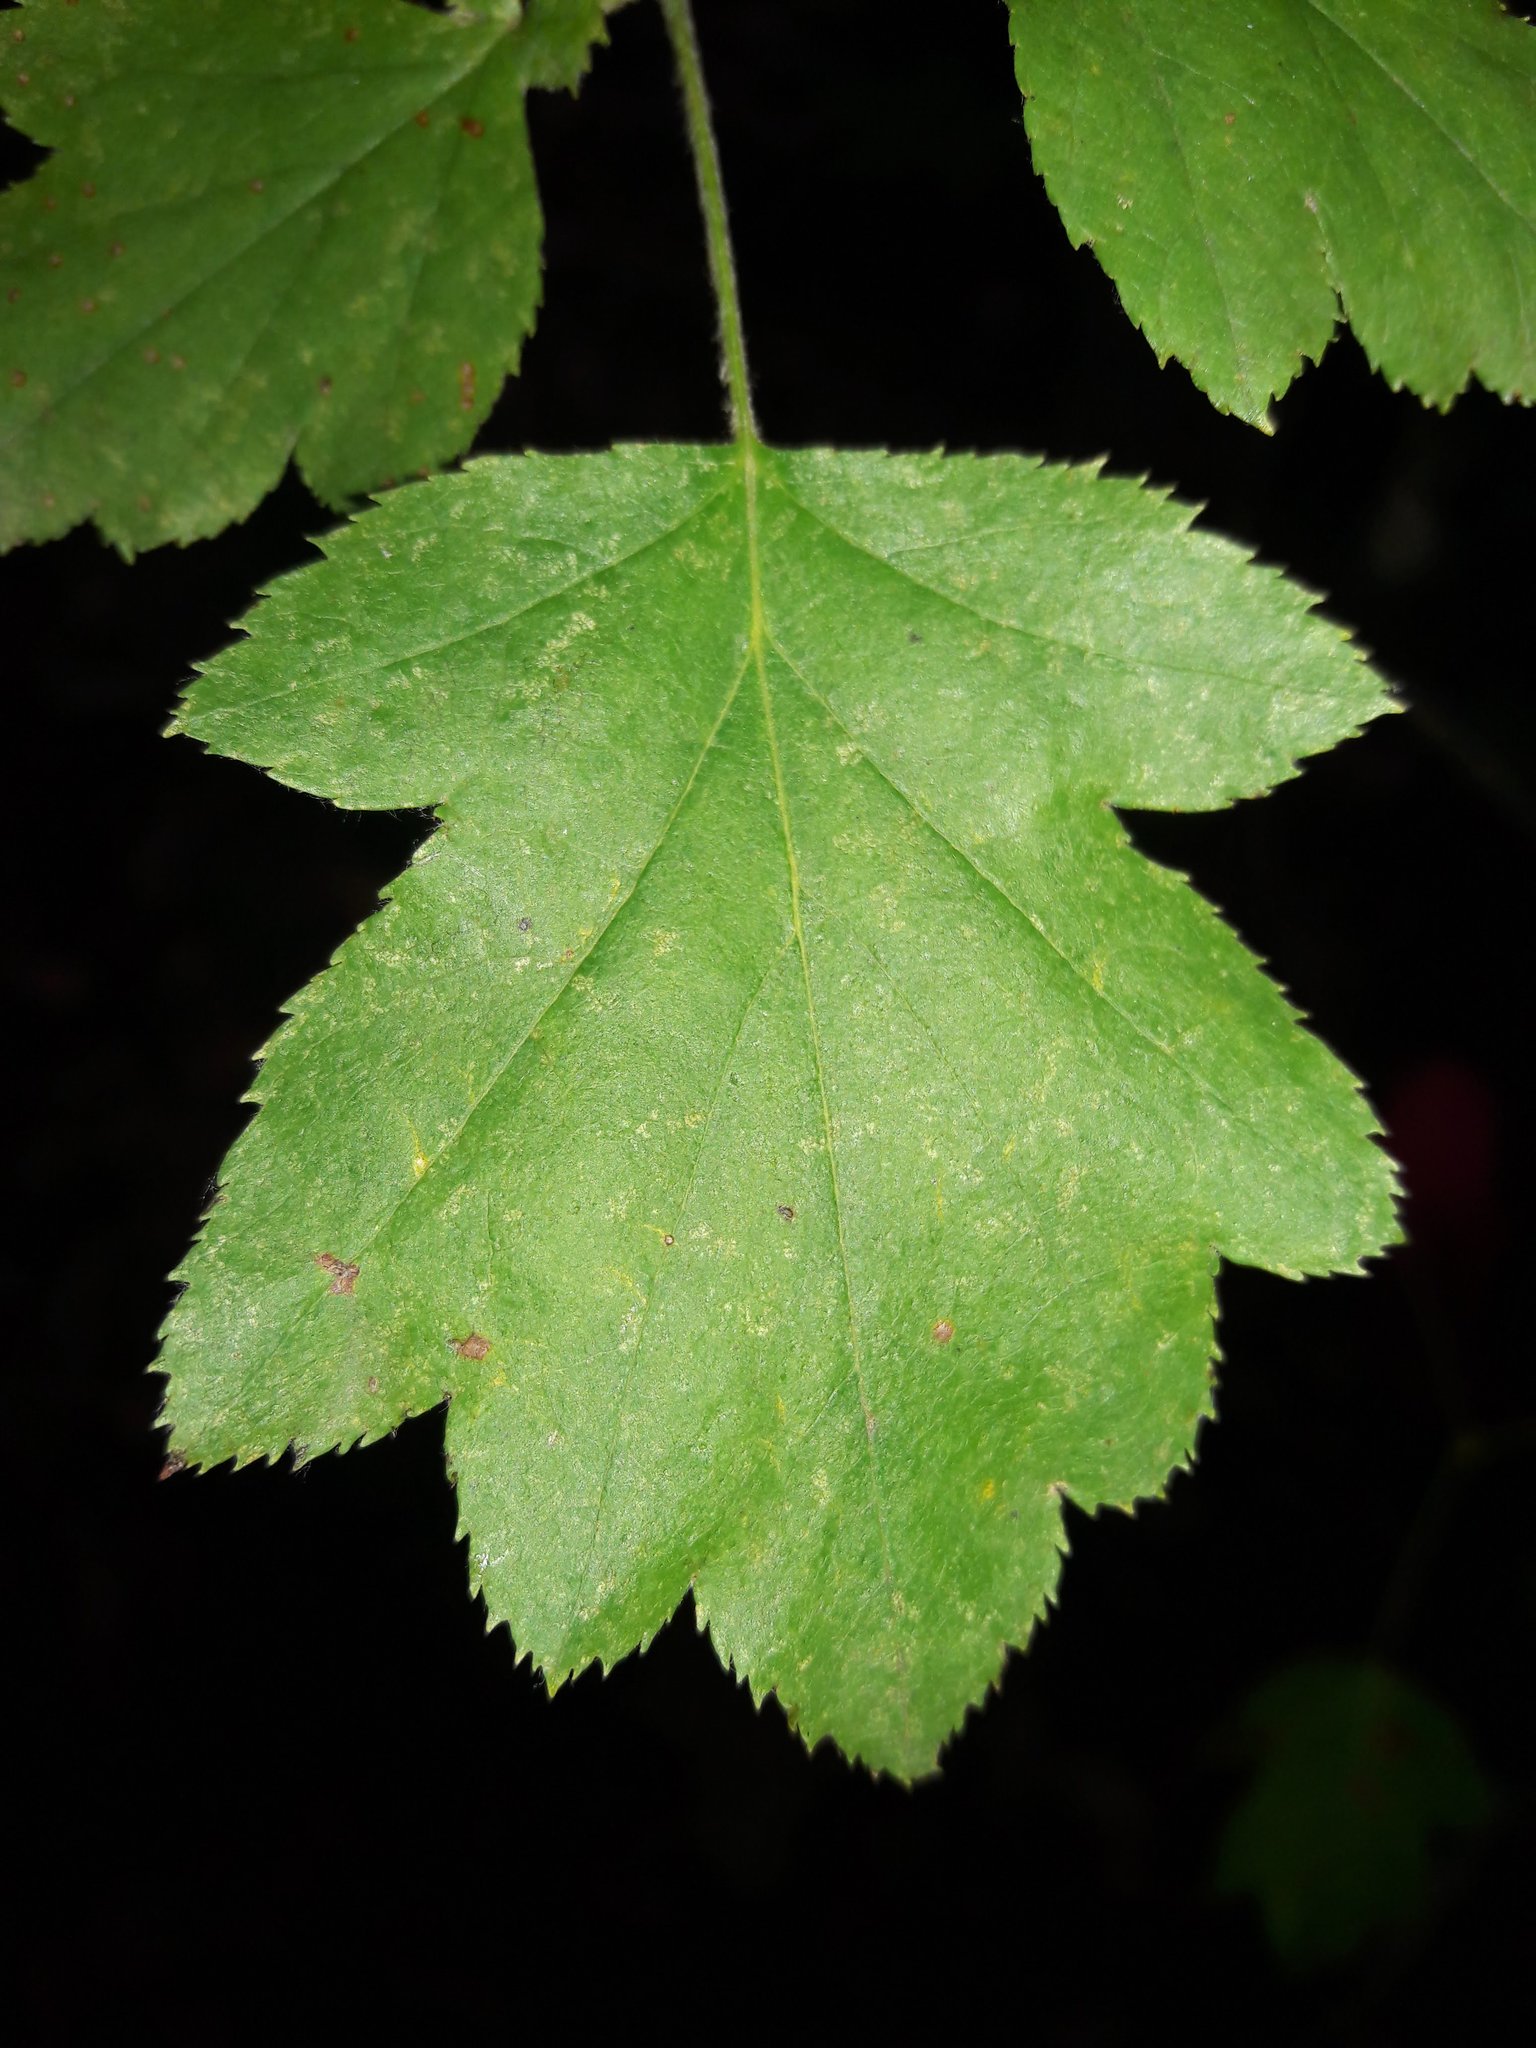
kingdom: Plantae
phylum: Tracheophyta
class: Magnoliopsida
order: Rosales
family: Rosaceae
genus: Torminalis
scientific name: Torminalis glaberrima
